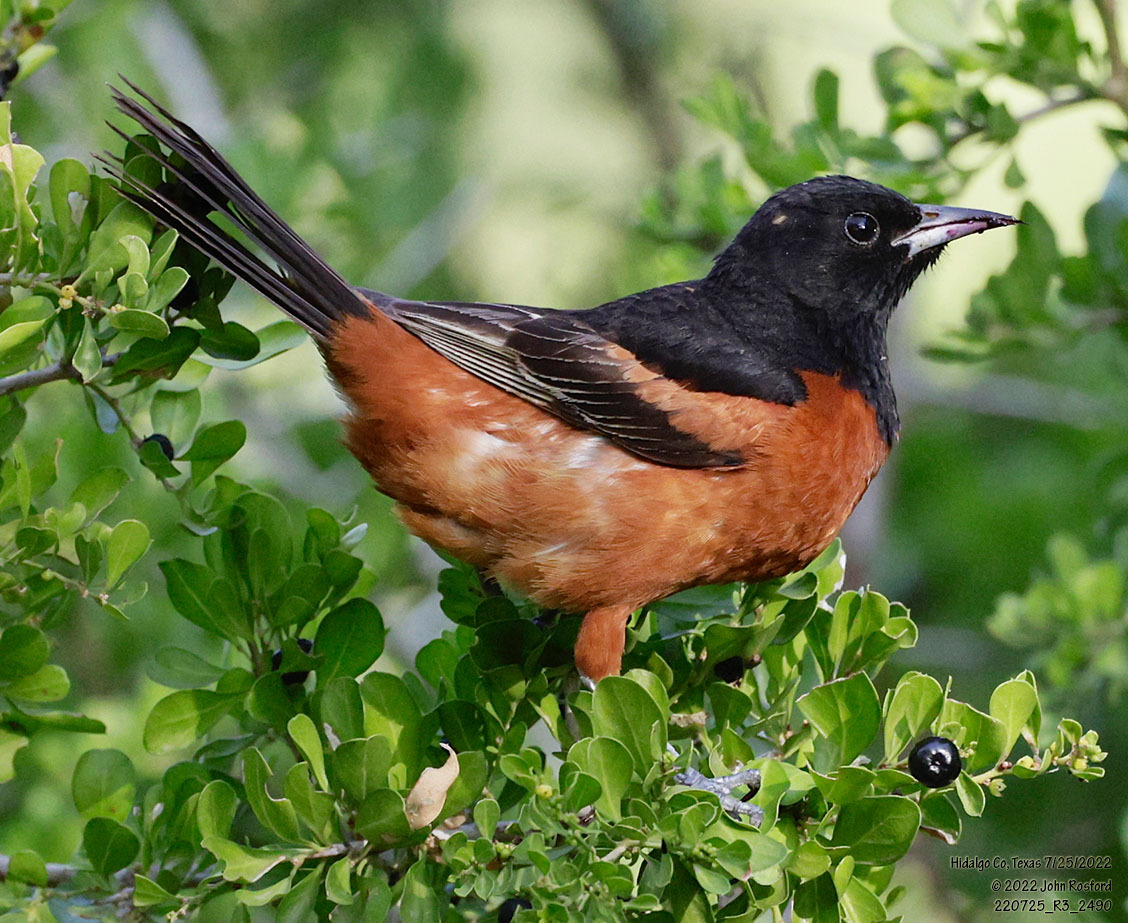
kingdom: Animalia
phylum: Chordata
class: Aves
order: Passeriformes
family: Icteridae
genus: Icterus
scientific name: Icterus spurius
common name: Orchard oriole
